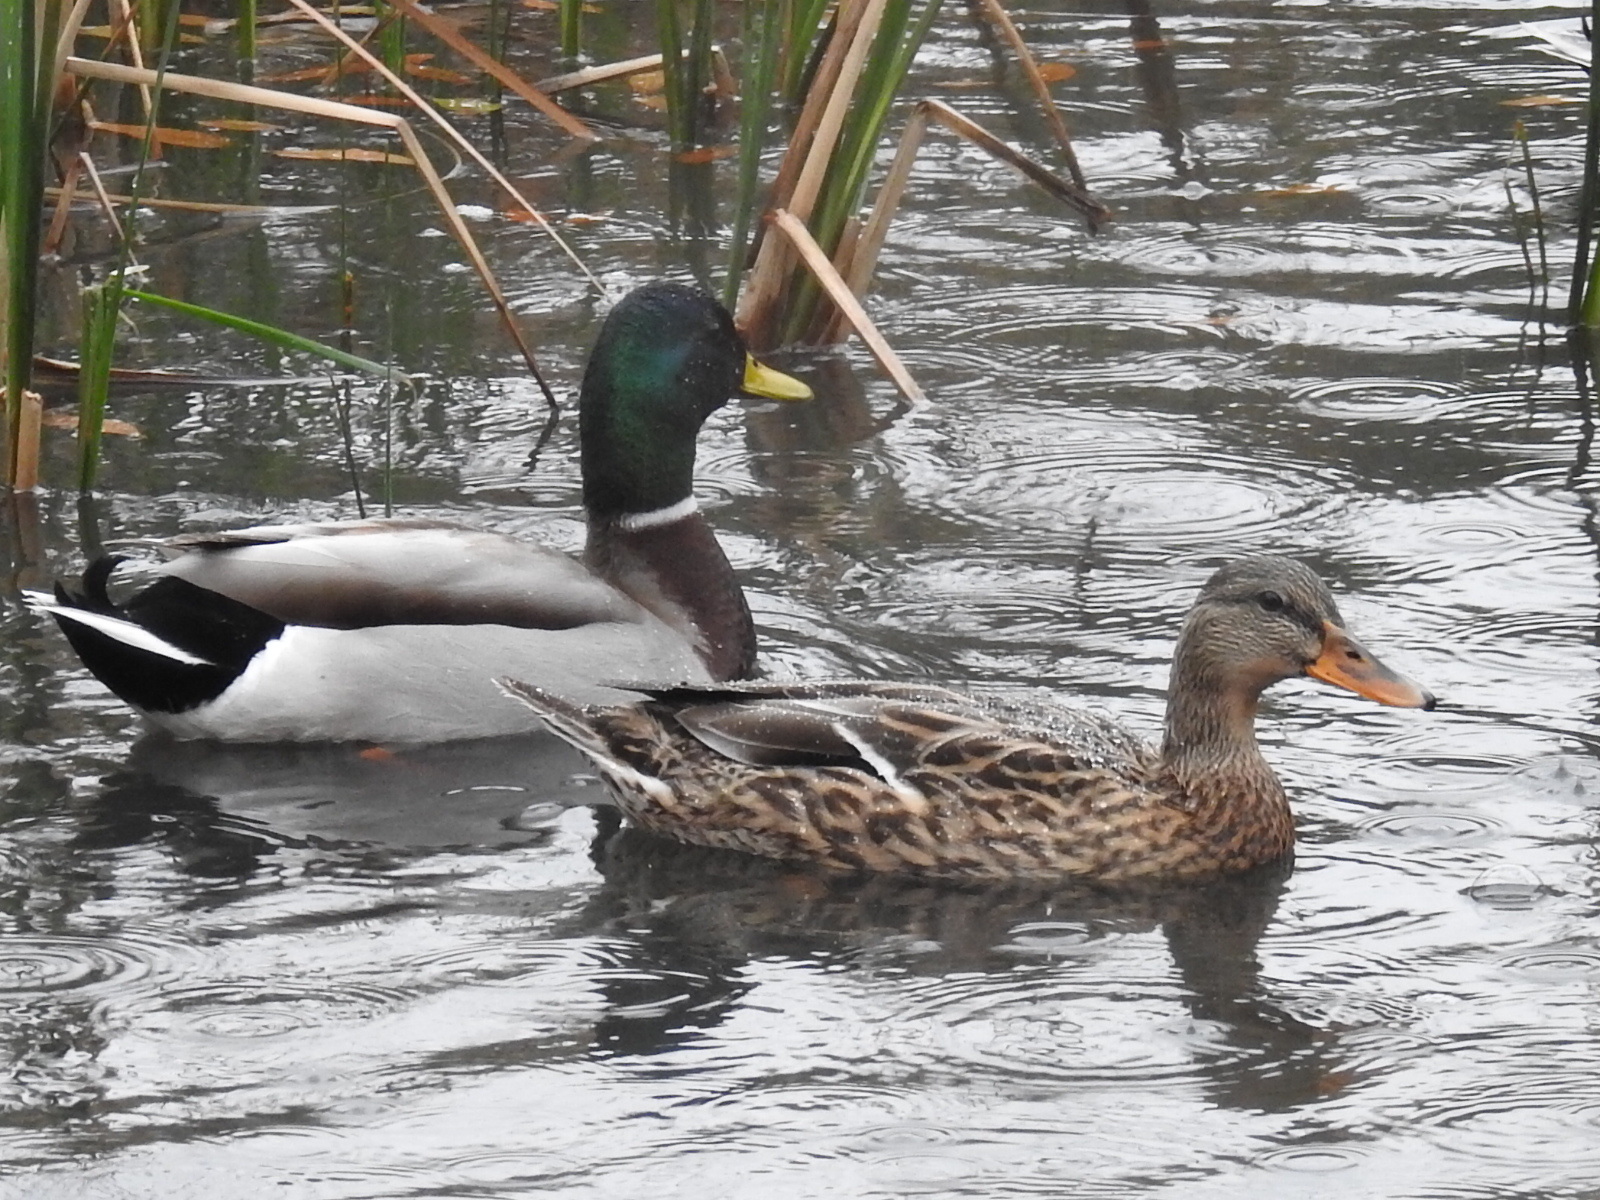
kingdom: Animalia
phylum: Chordata
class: Aves
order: Anseriformes
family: Anatidae
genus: Anas
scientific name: Anas platyrhynchos
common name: Mallard
